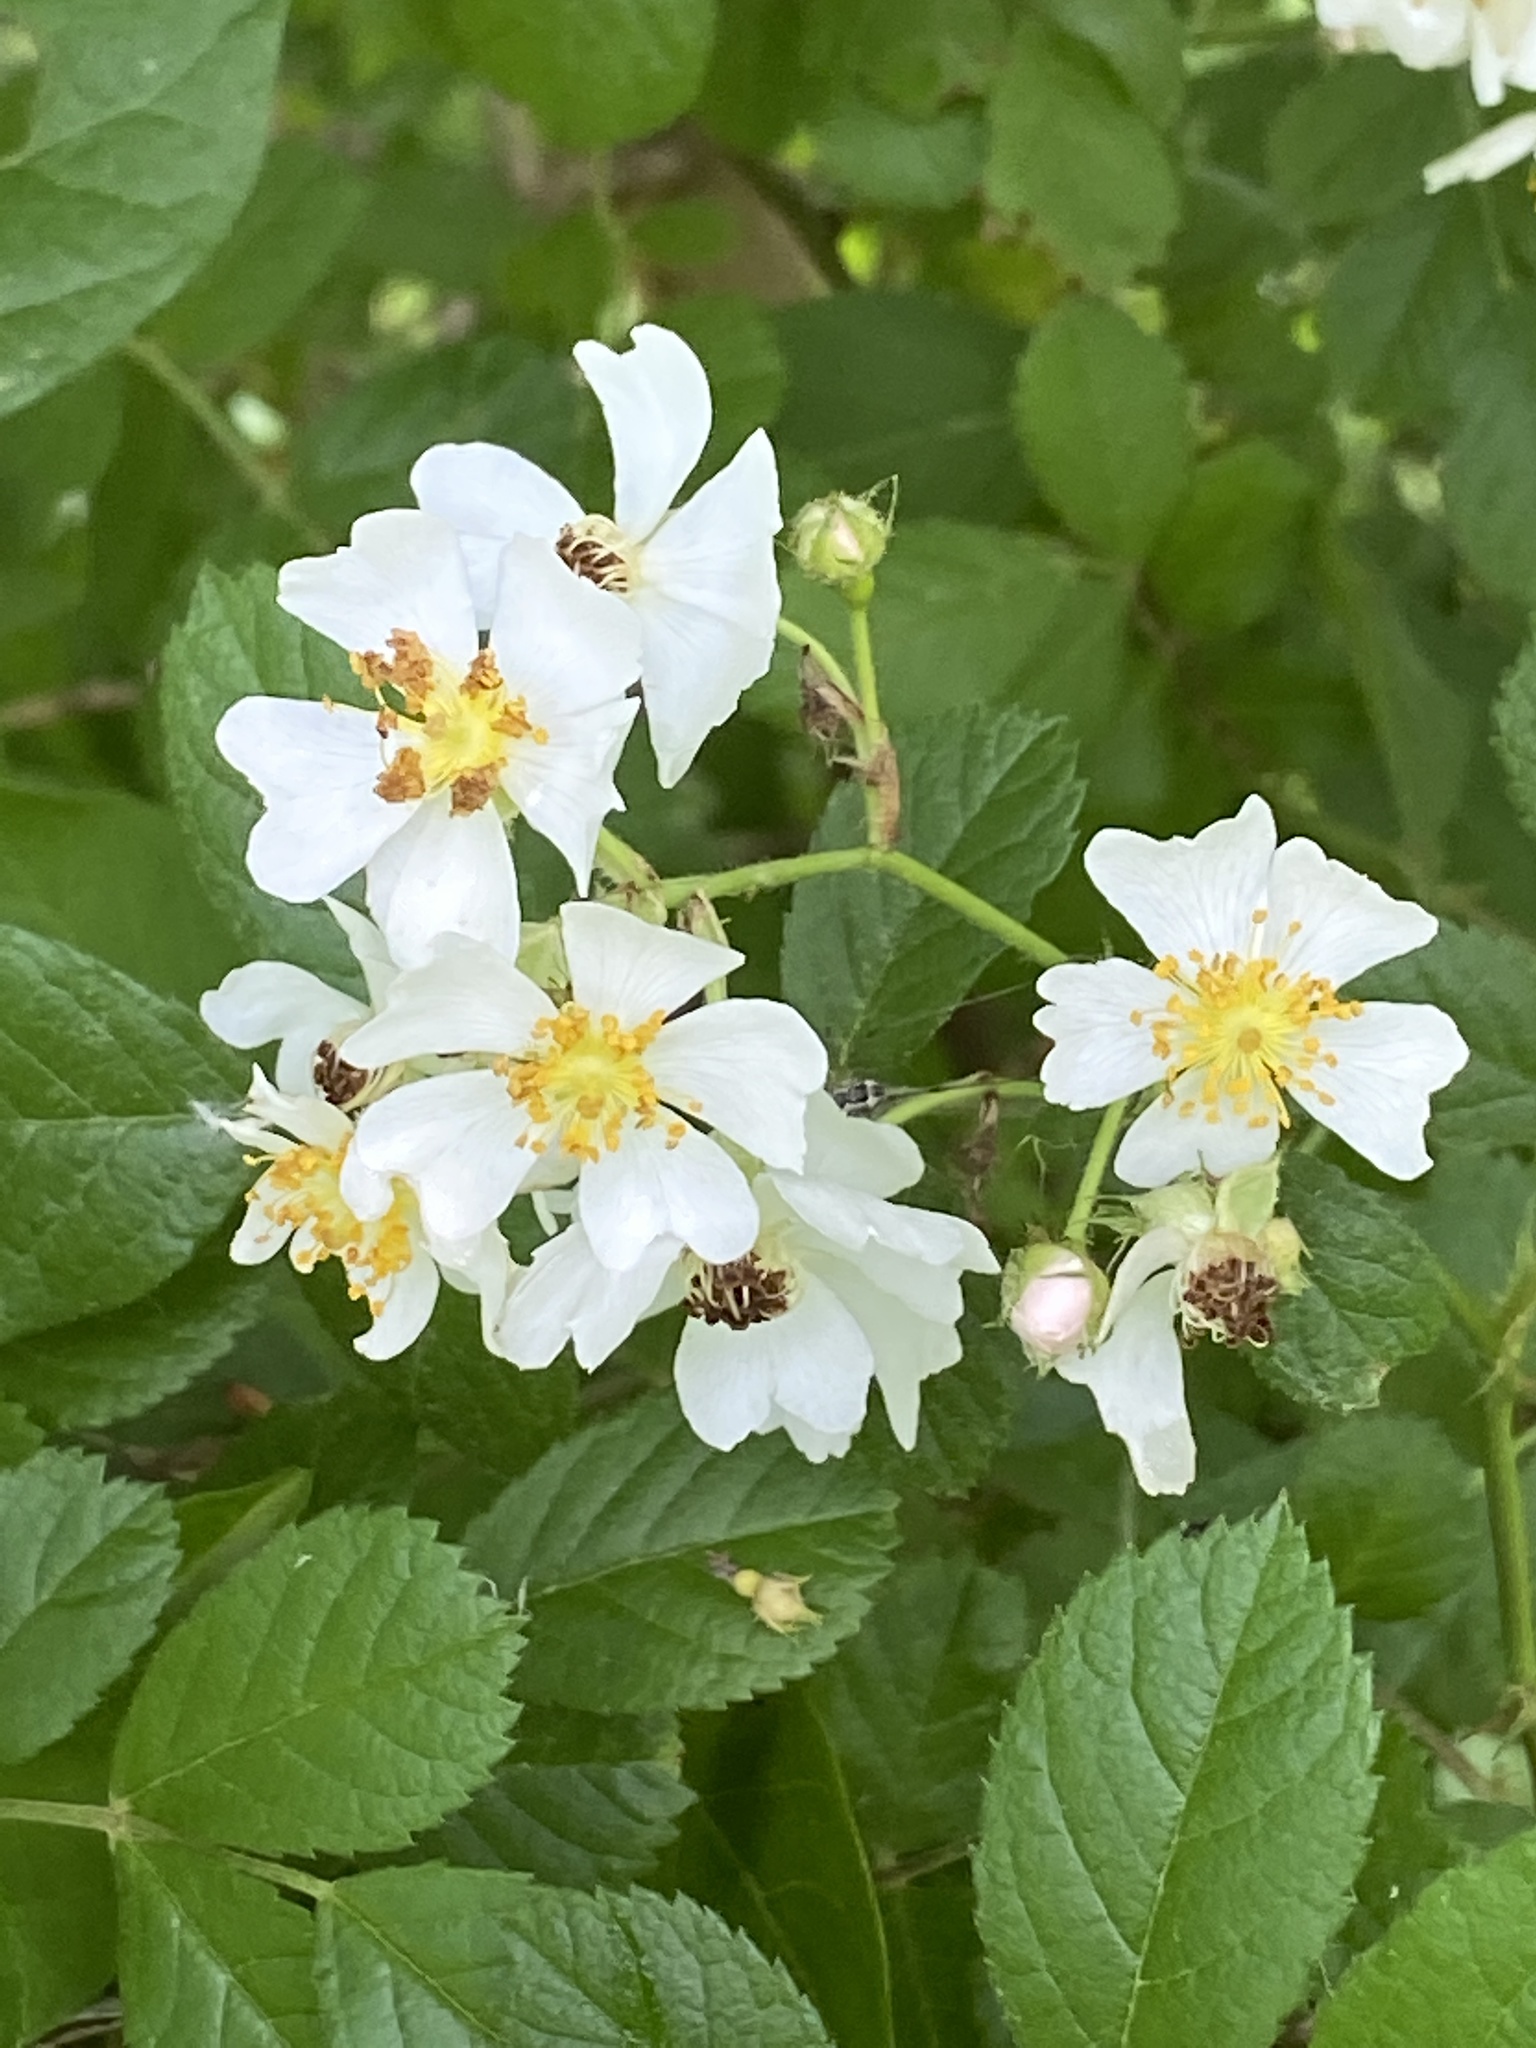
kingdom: Plantae
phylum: Tracheophyta
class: Magnoliopsida
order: Rosales
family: Rosaceae
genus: Rosa
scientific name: Rosa multiflora
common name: Multiflora rose
